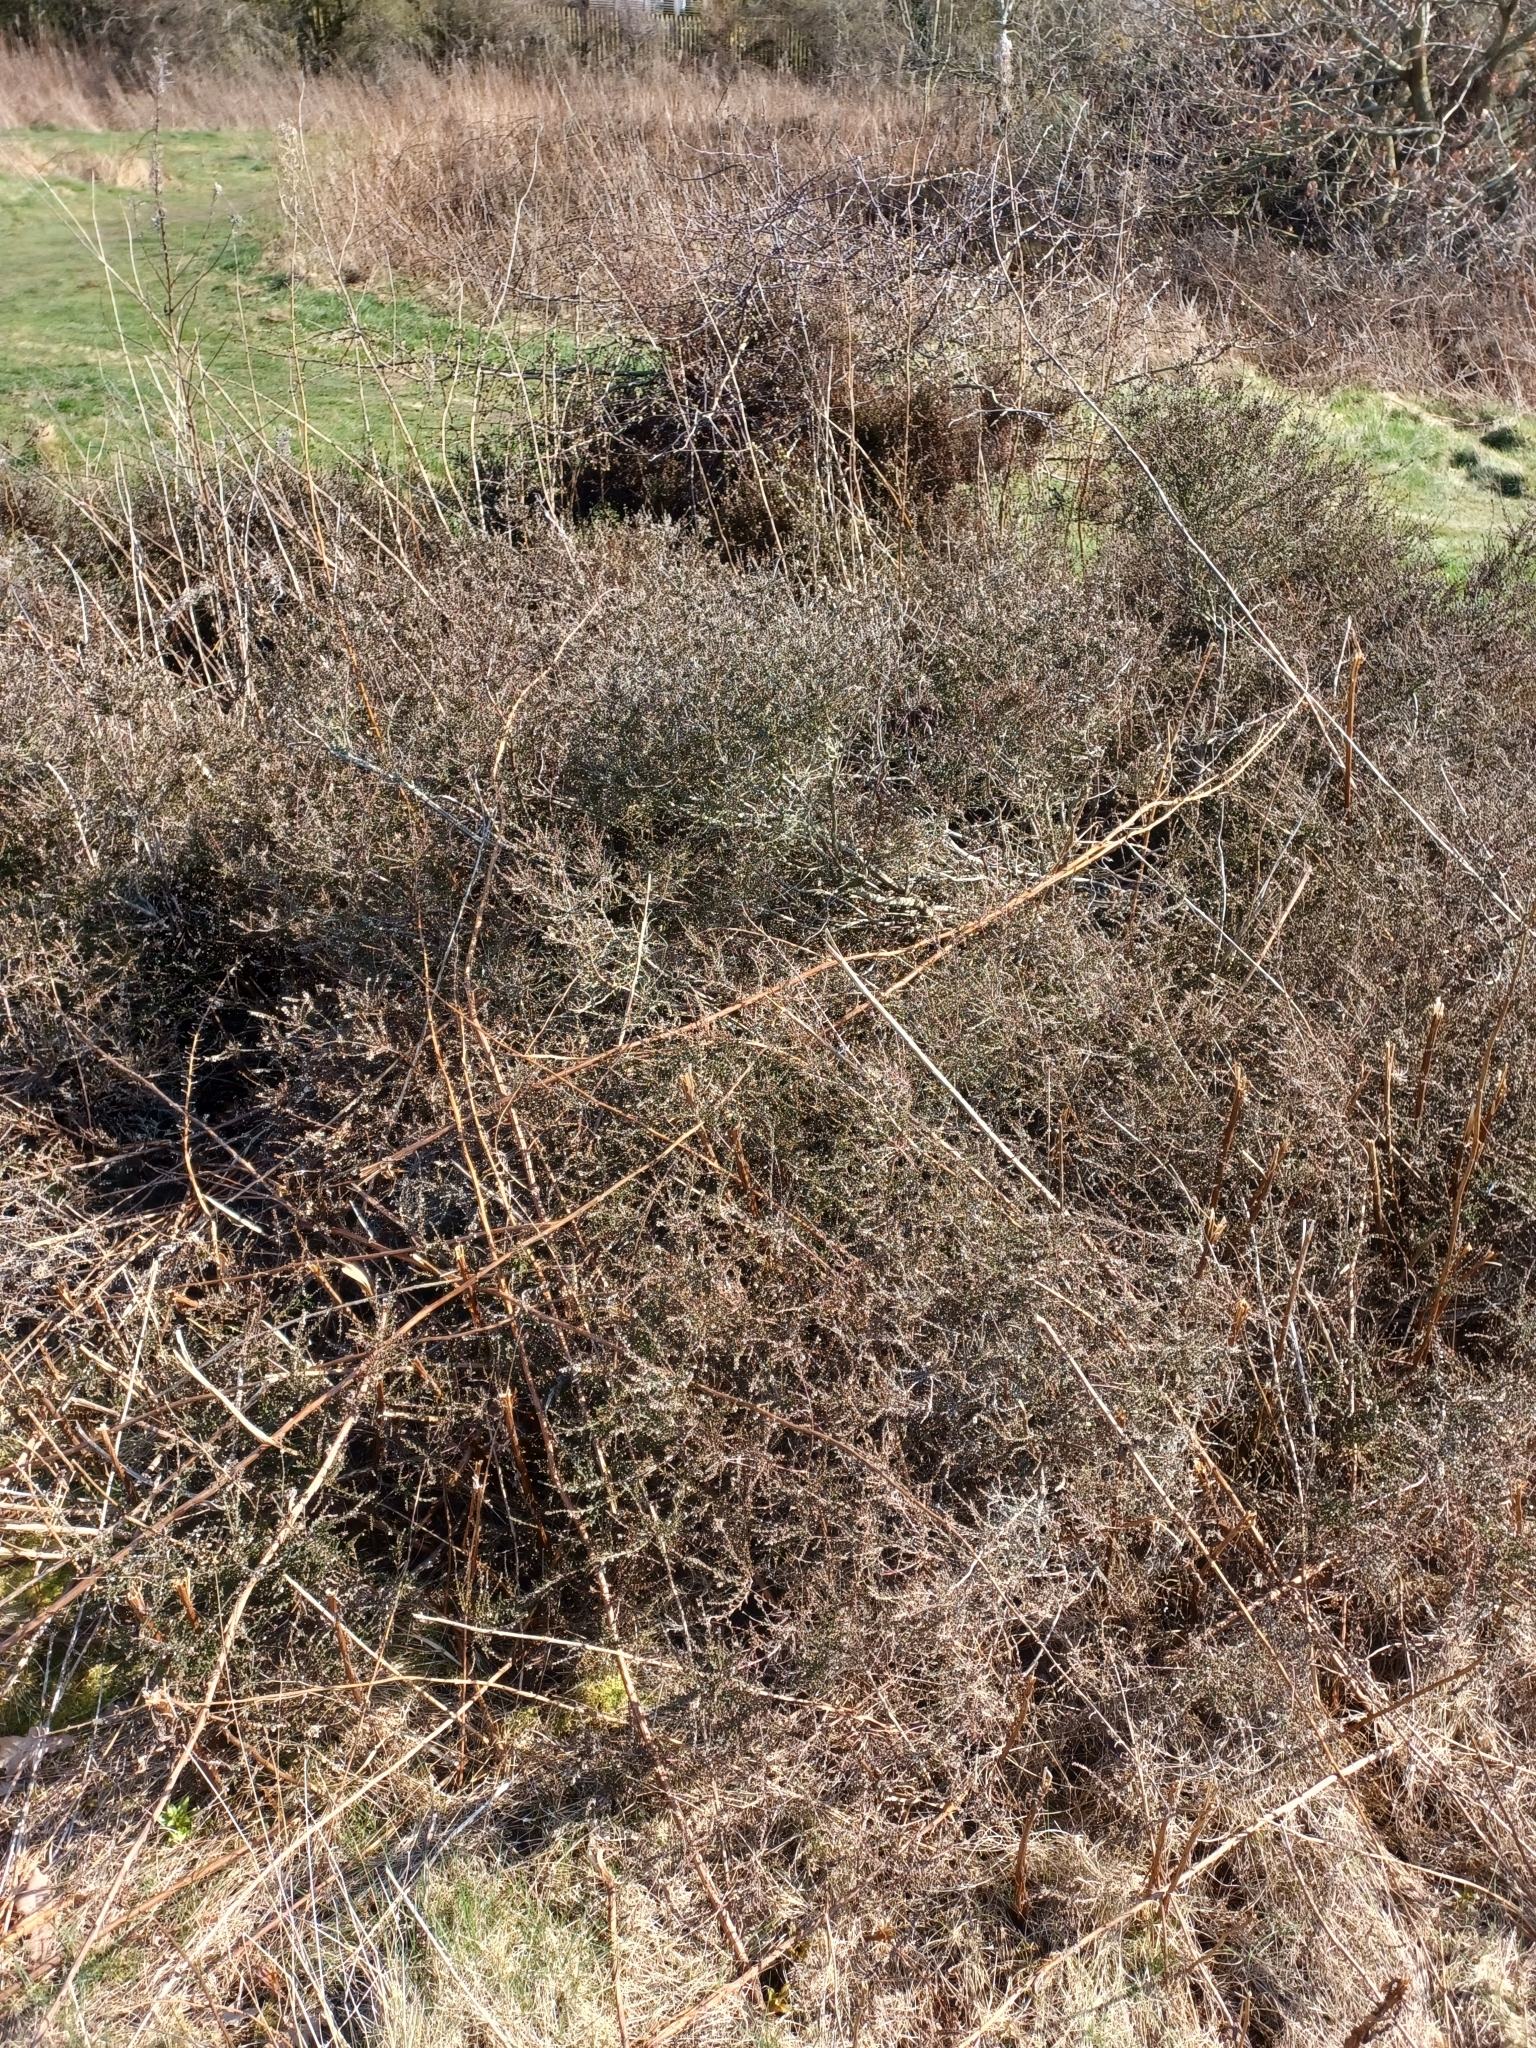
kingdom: Plantae
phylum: Tracheophyta
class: Magnoliopsida
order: Ericales
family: Ericaceae
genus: Calluna
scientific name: Calluna vulgaris
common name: Heather
